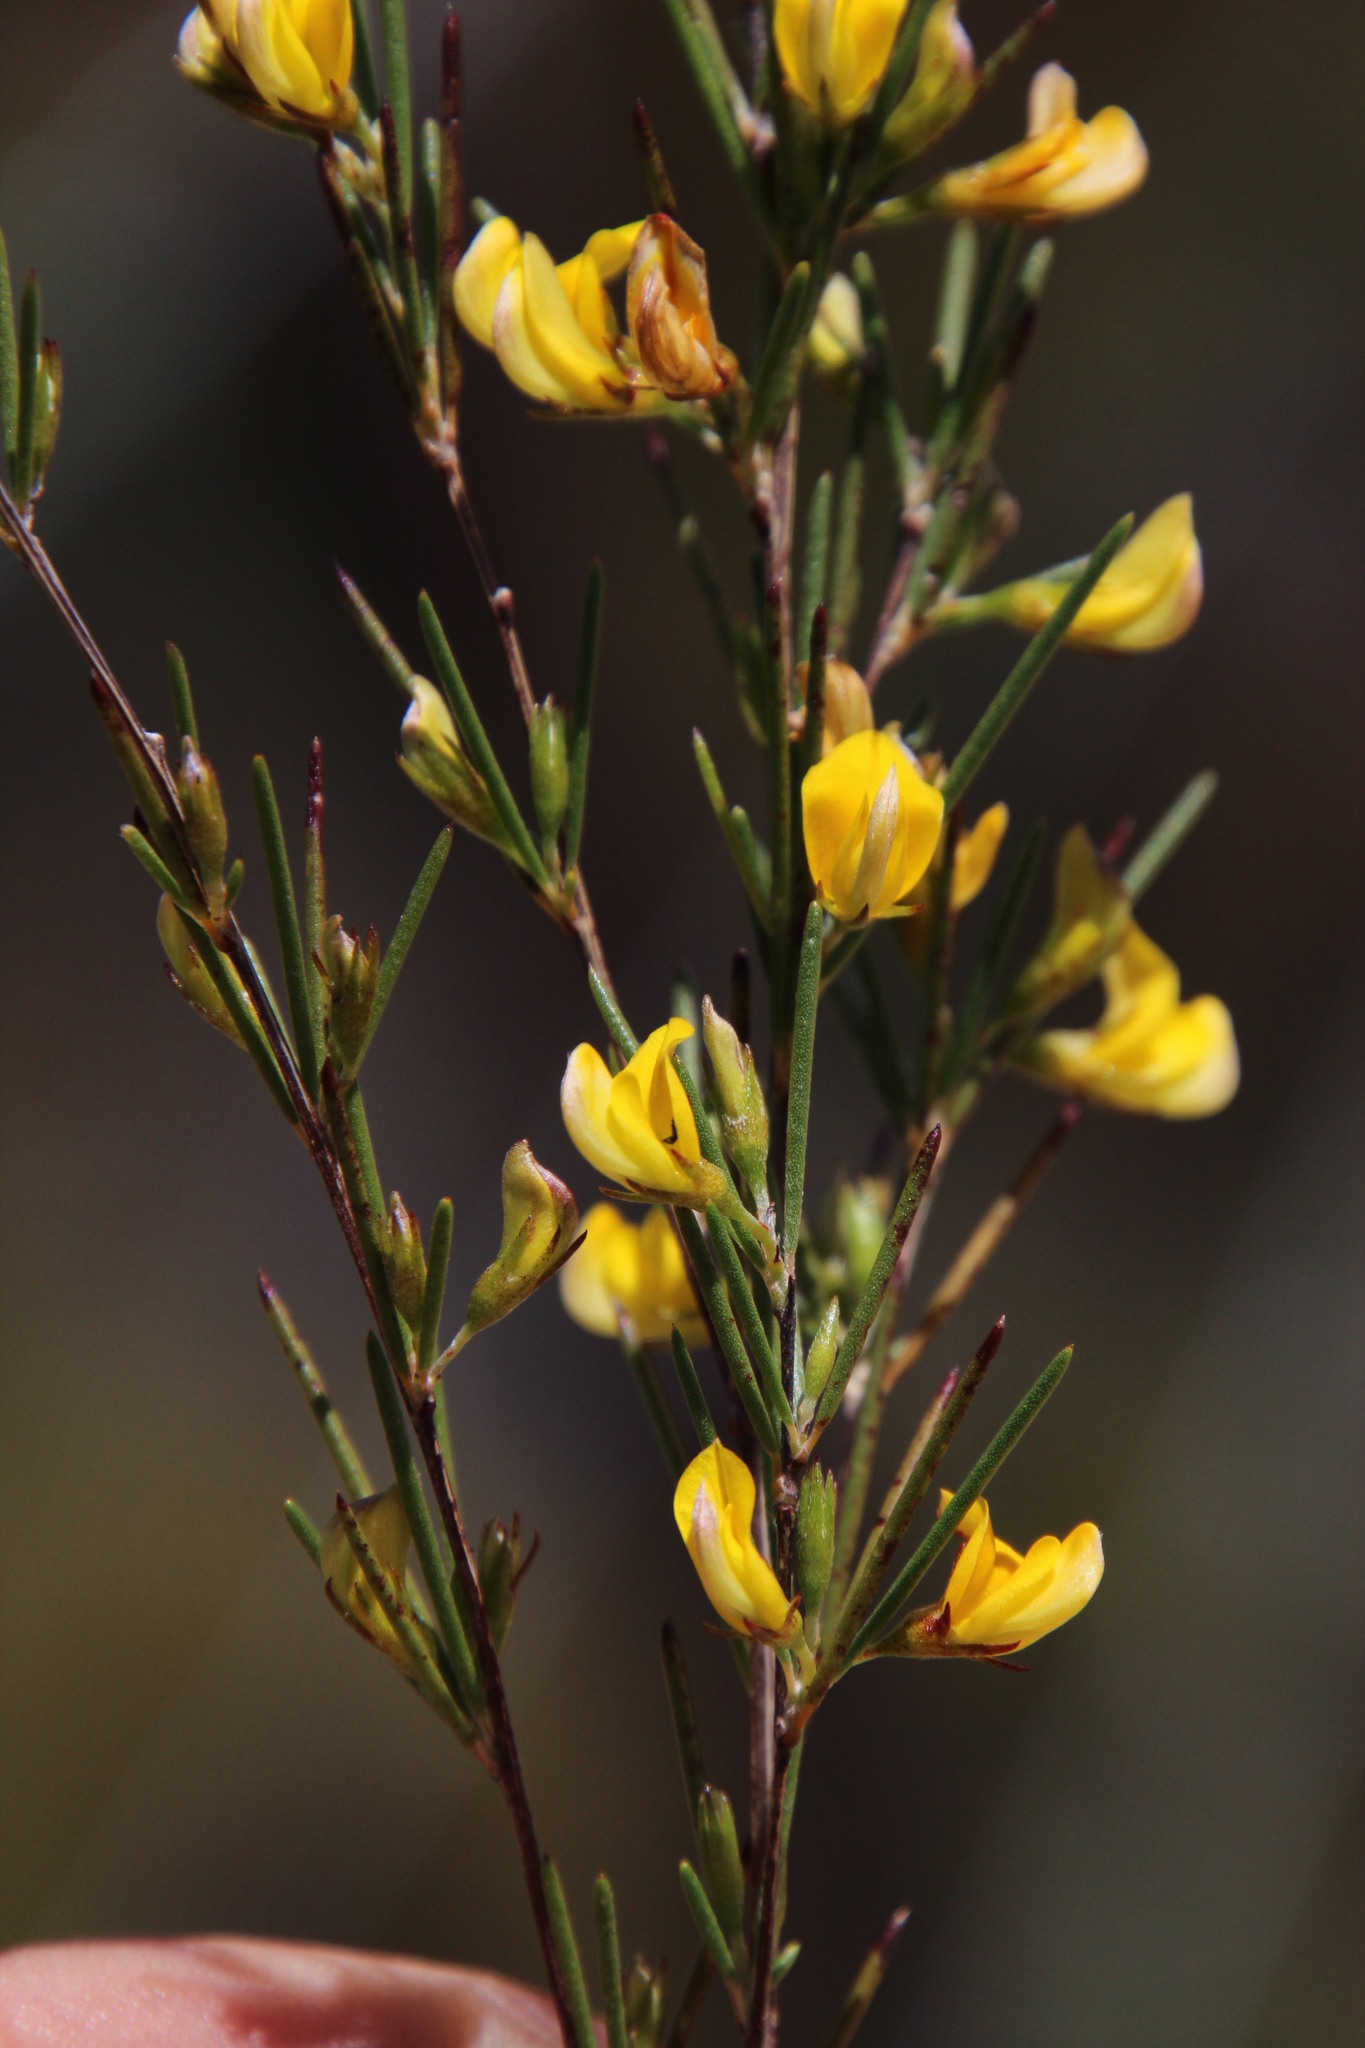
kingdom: Plantae
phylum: Tracheophyta
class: Magnoliopsida
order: Fabales
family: Fabaceae
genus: Aspalathus
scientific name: Aspalathus linearis
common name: Rooibos-tea
